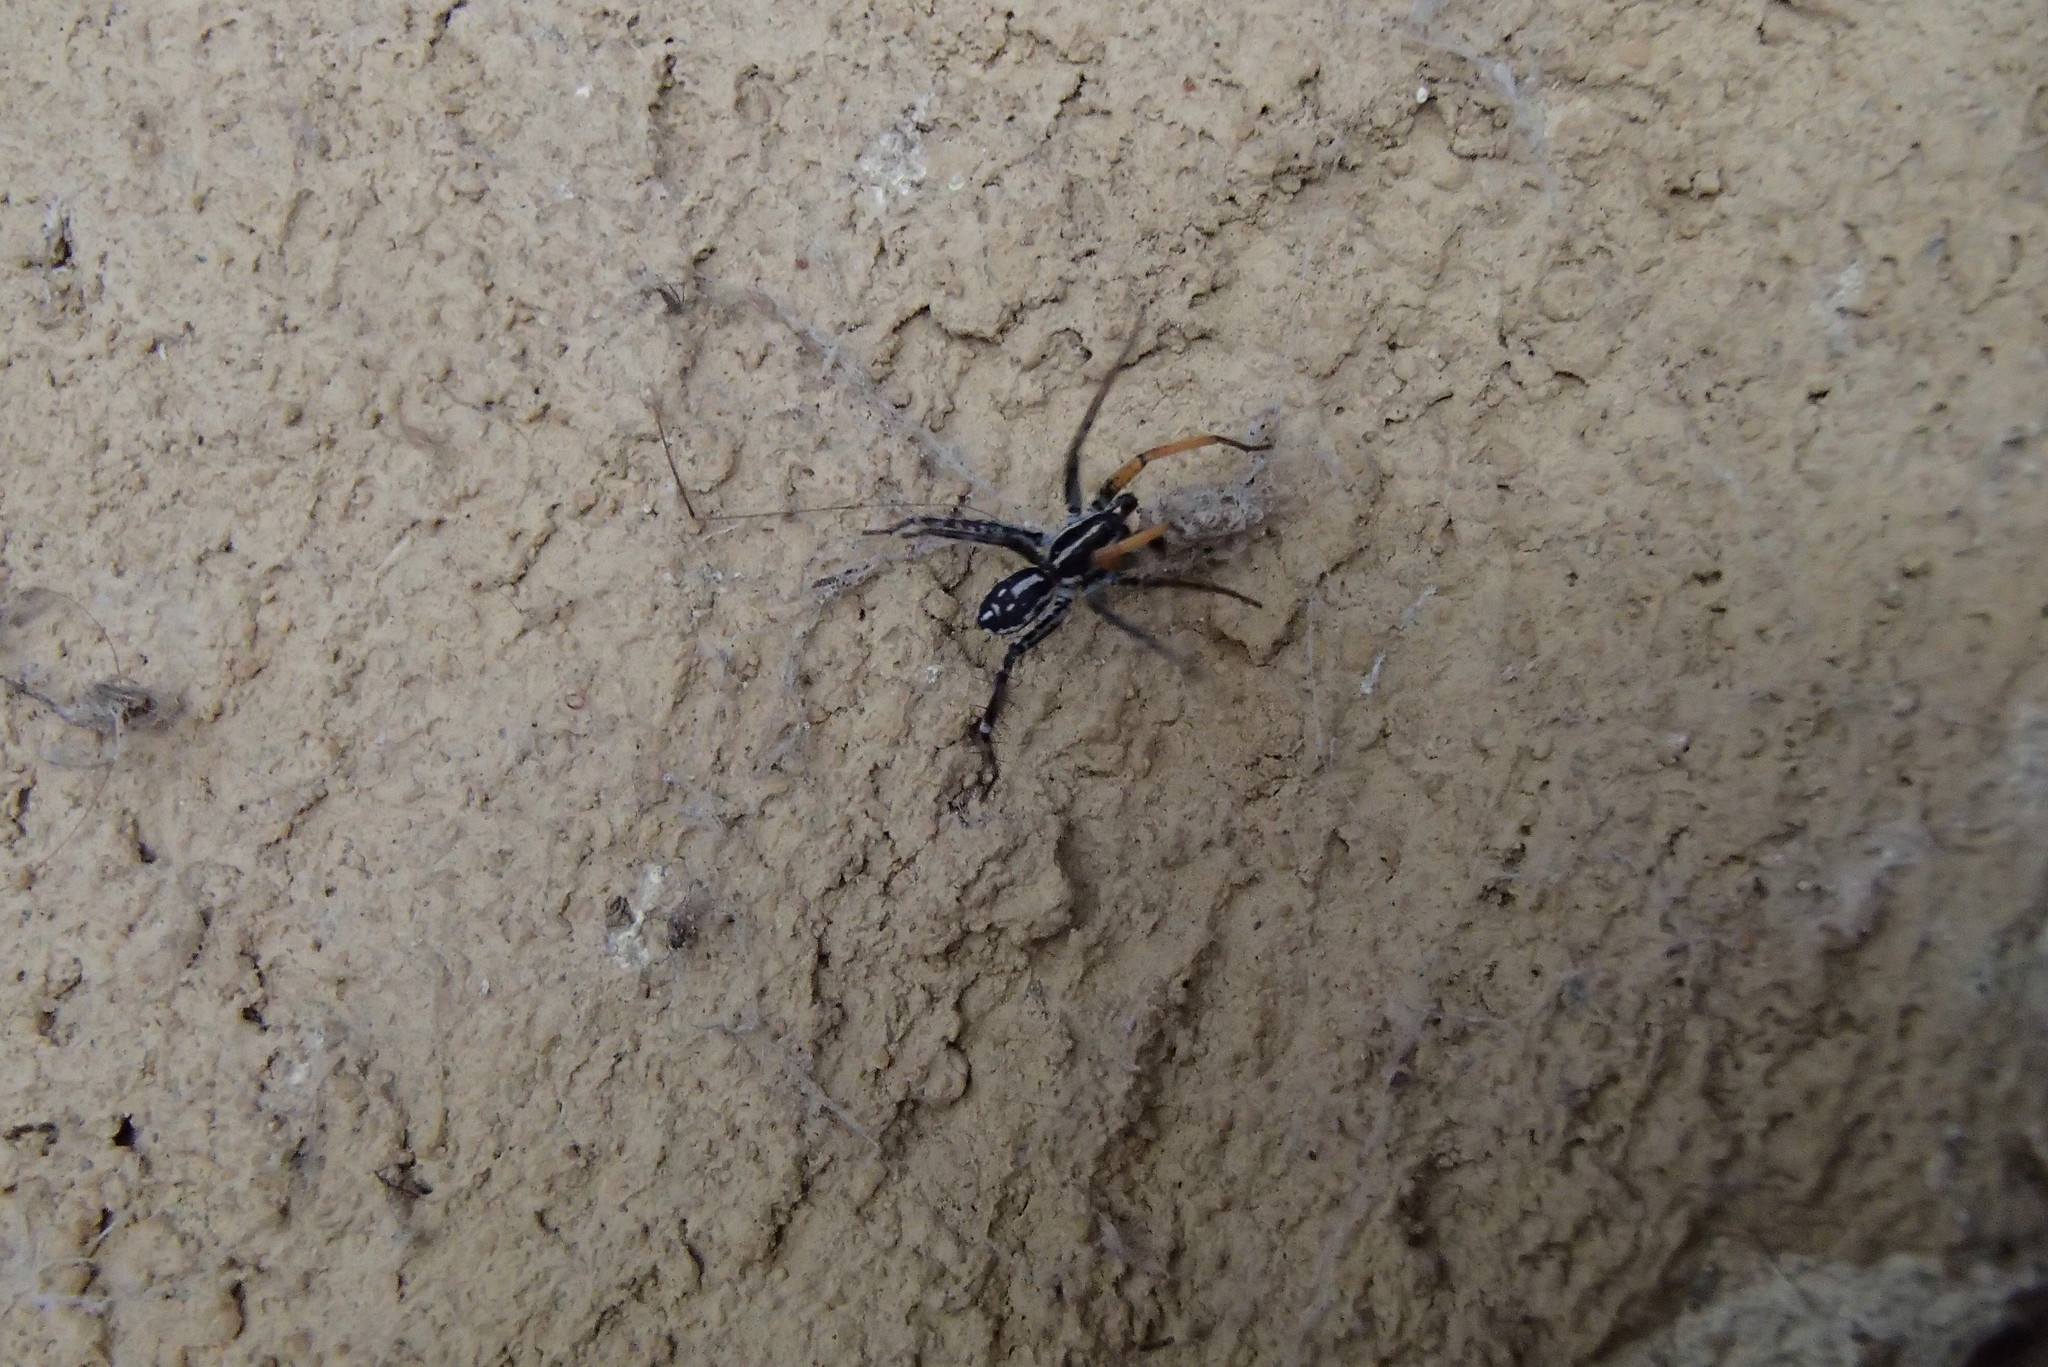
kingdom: Animalia
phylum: Arthropoda
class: Arachnida
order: Araneae
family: Corinnidae
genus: Nyssus
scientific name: Nyssus coloripes
